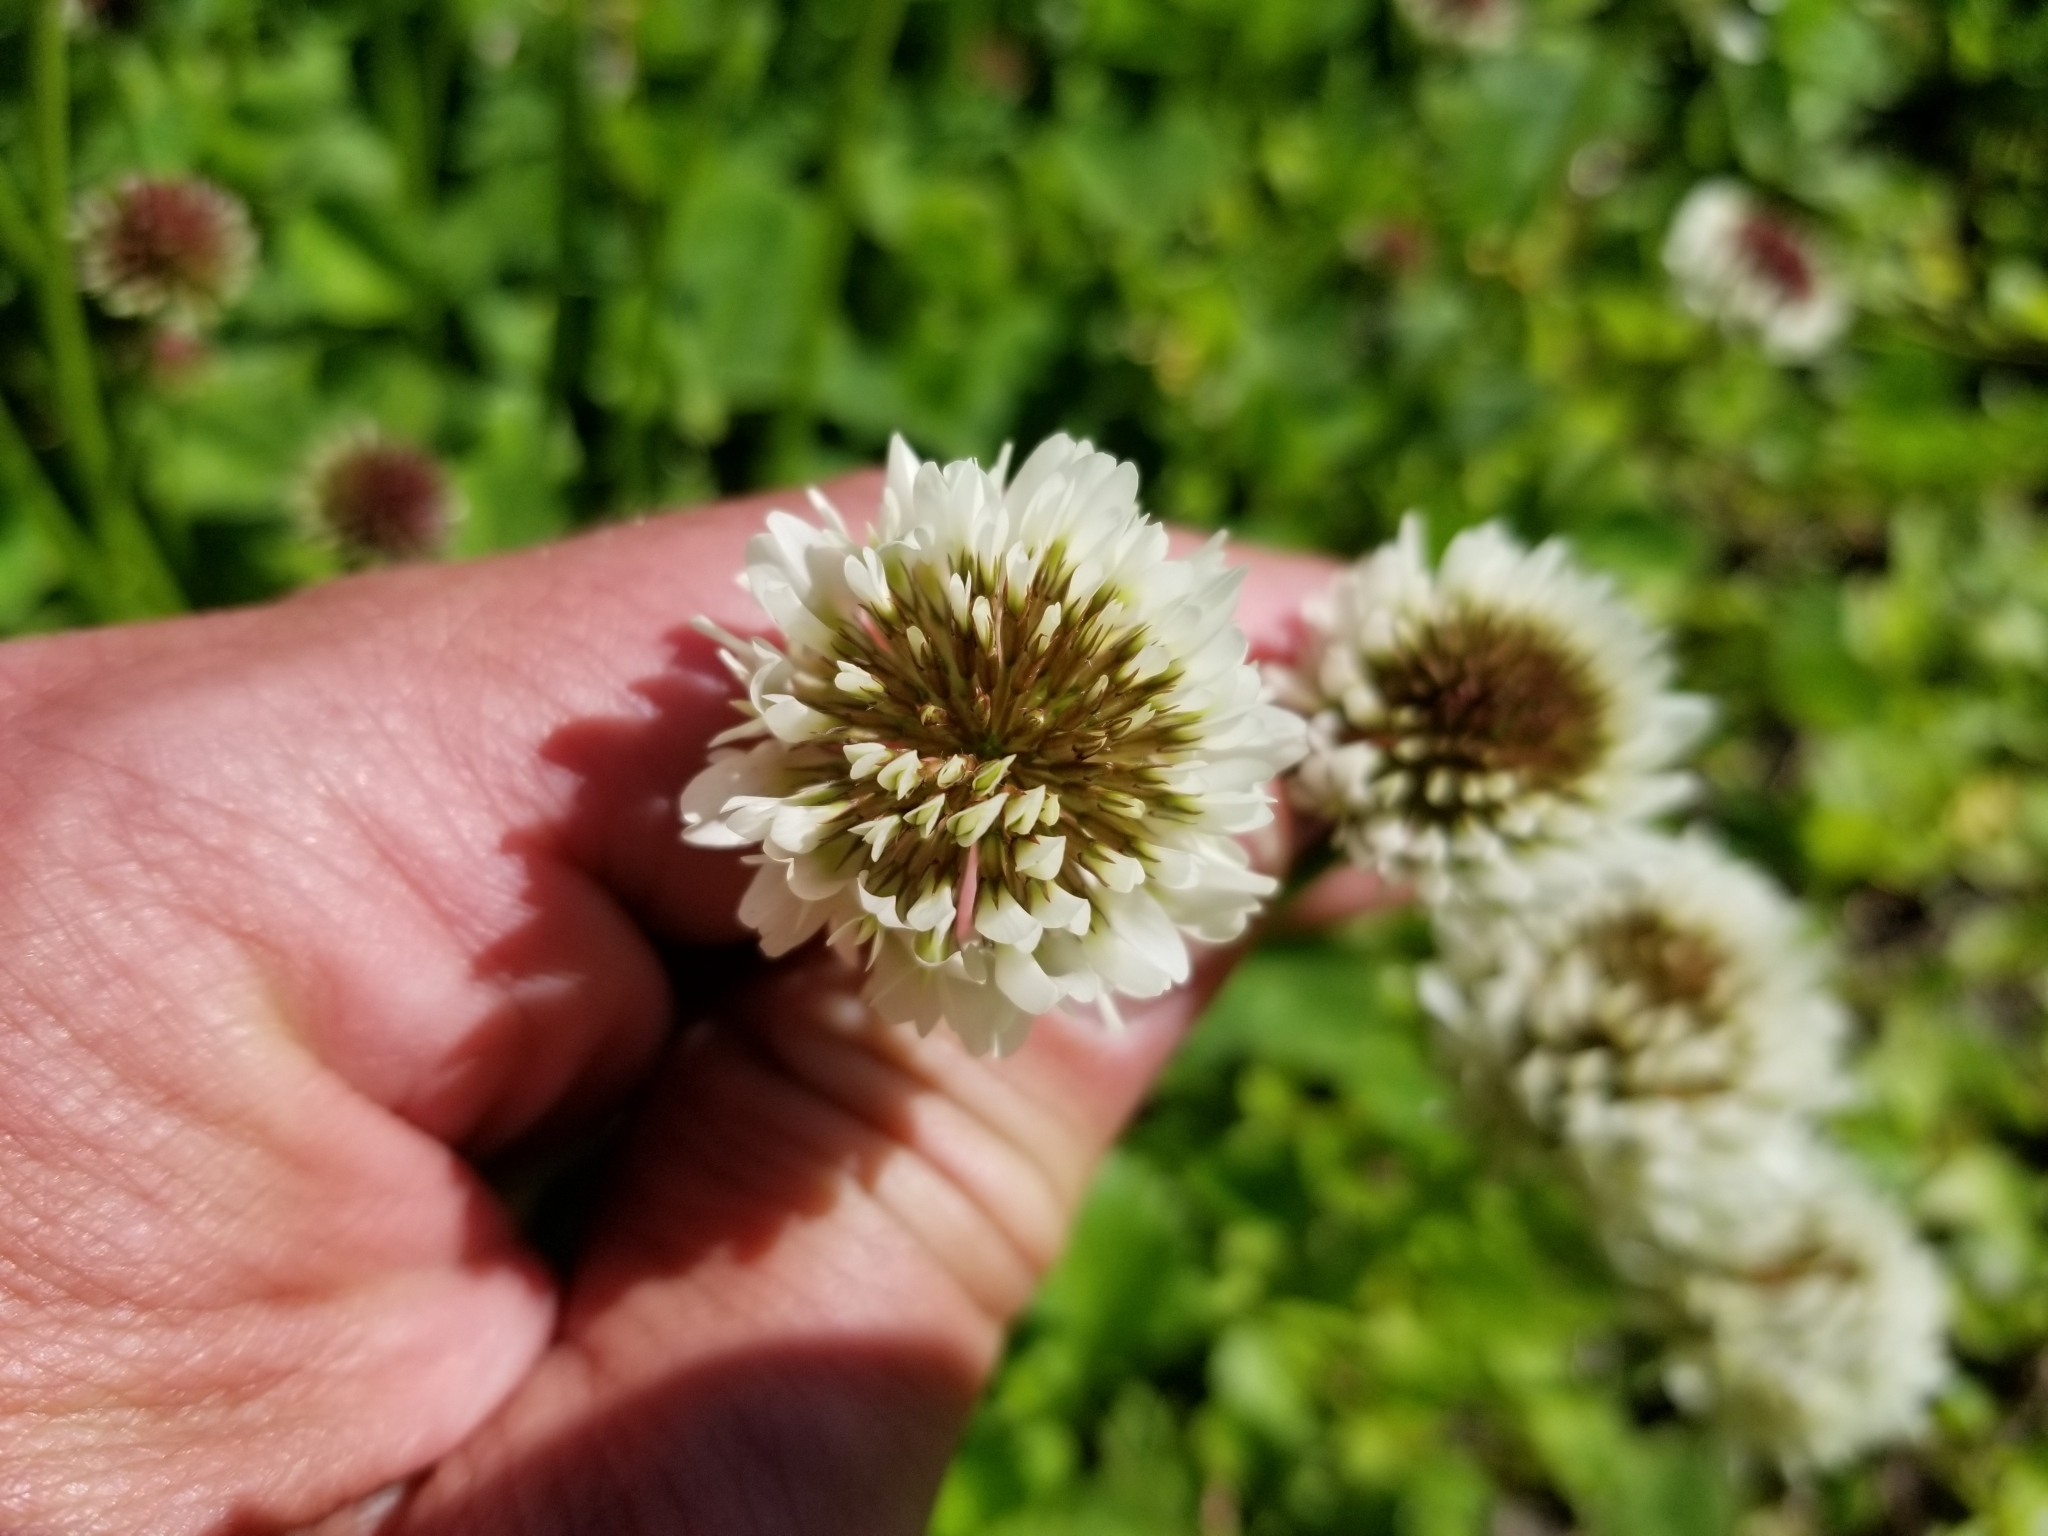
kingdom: Plantae
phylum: Tracheophyta
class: Magnoliopsida
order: Fabales
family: Fabaceae
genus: Trifolium
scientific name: Trifolium repens
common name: White clover
